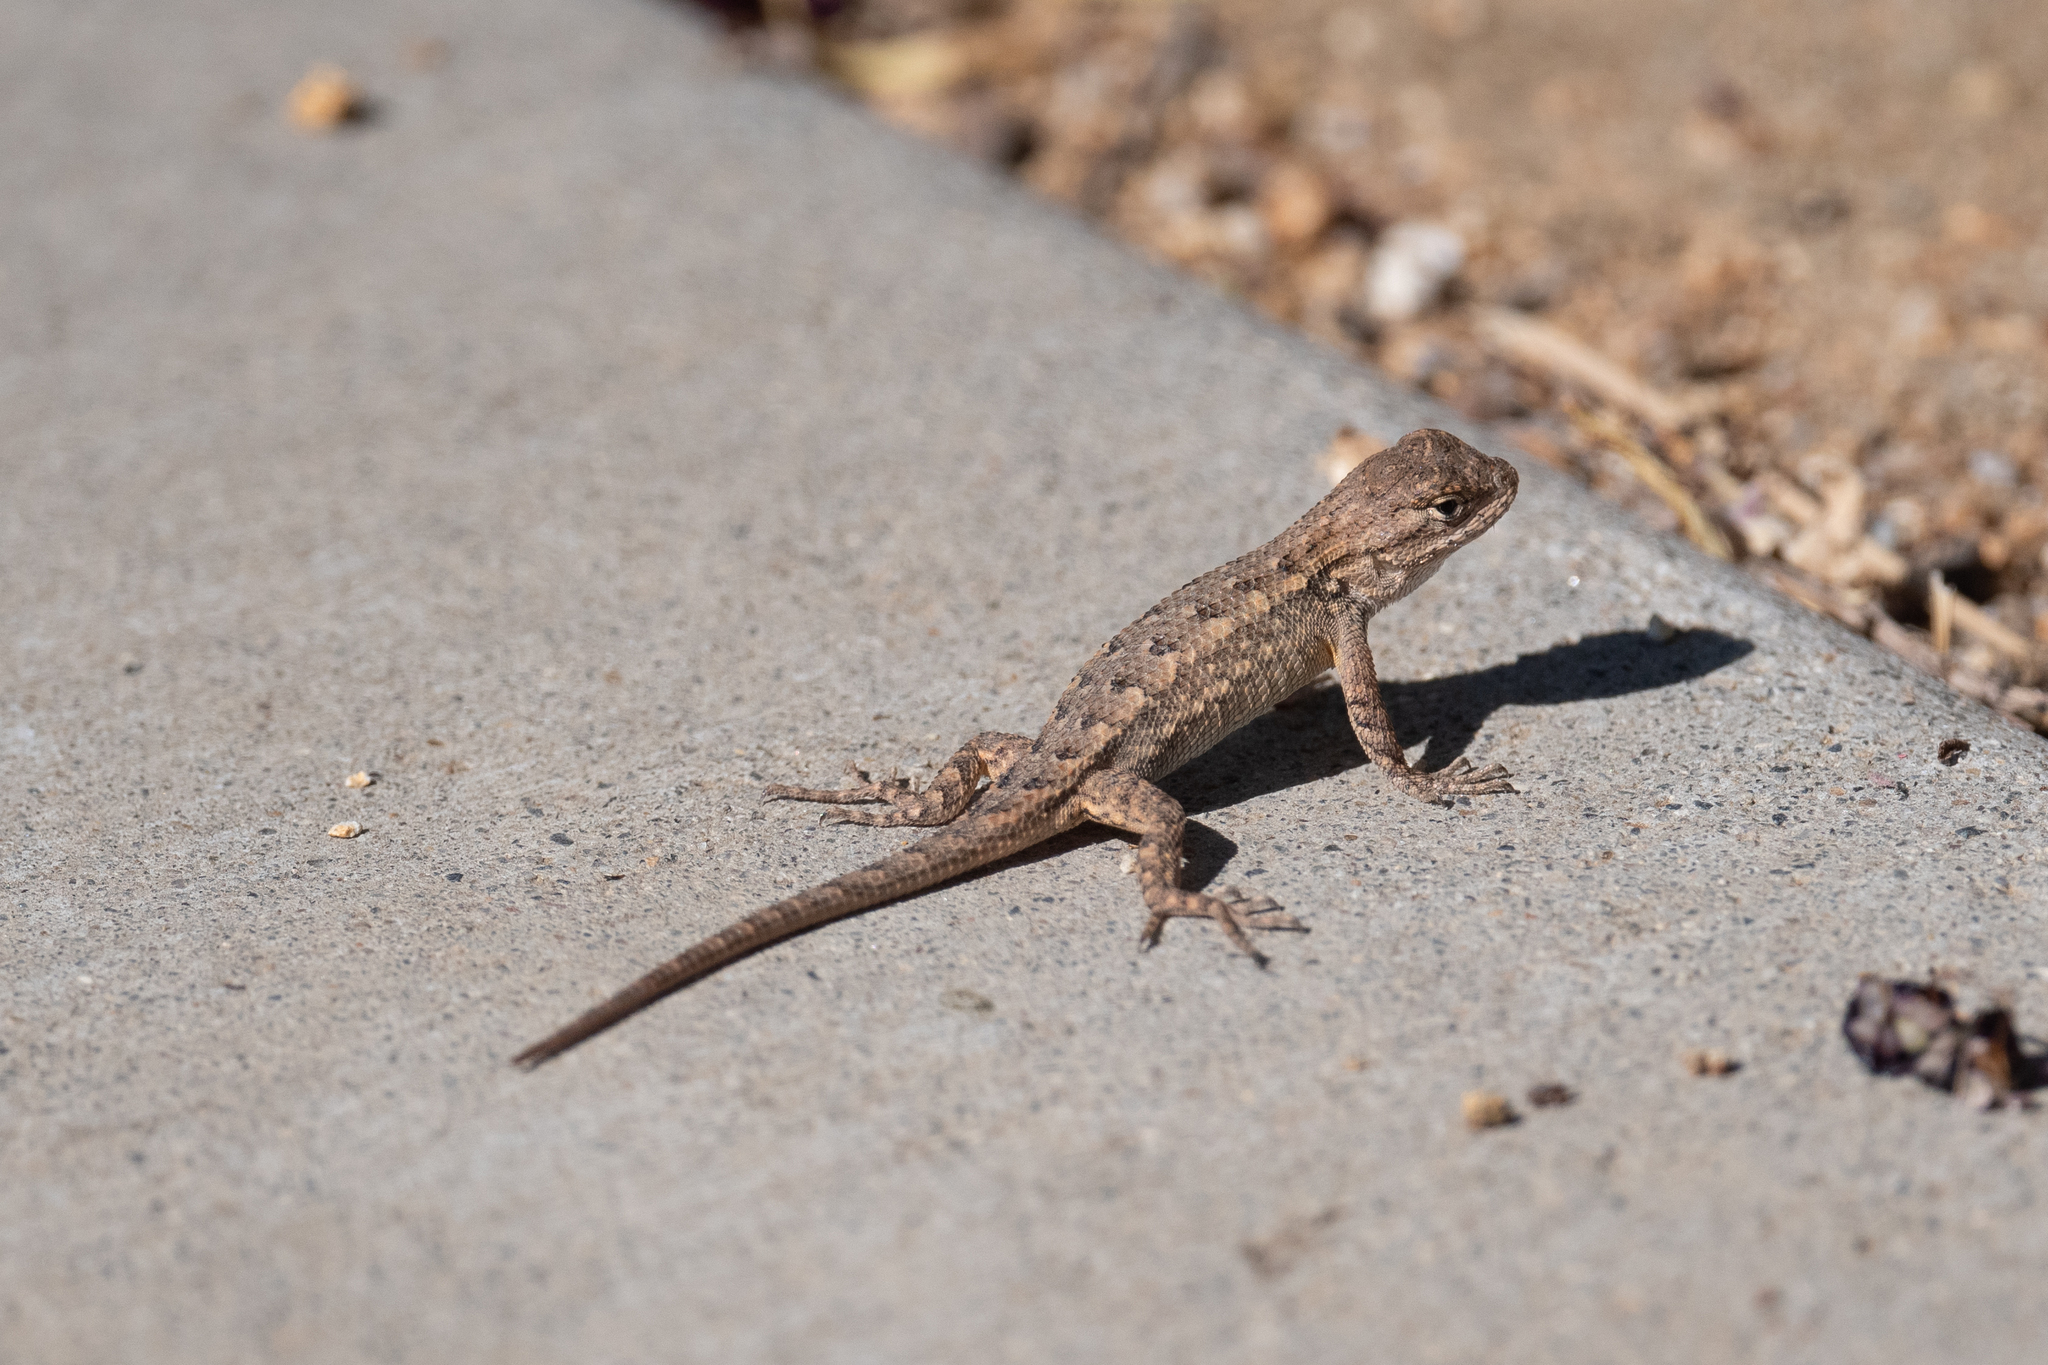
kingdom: Animalia
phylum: Chordata
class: Squamata
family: Phrynosomatidae
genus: Sceloporus
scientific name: Sceloporus occidentalis
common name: Western fence lizard
